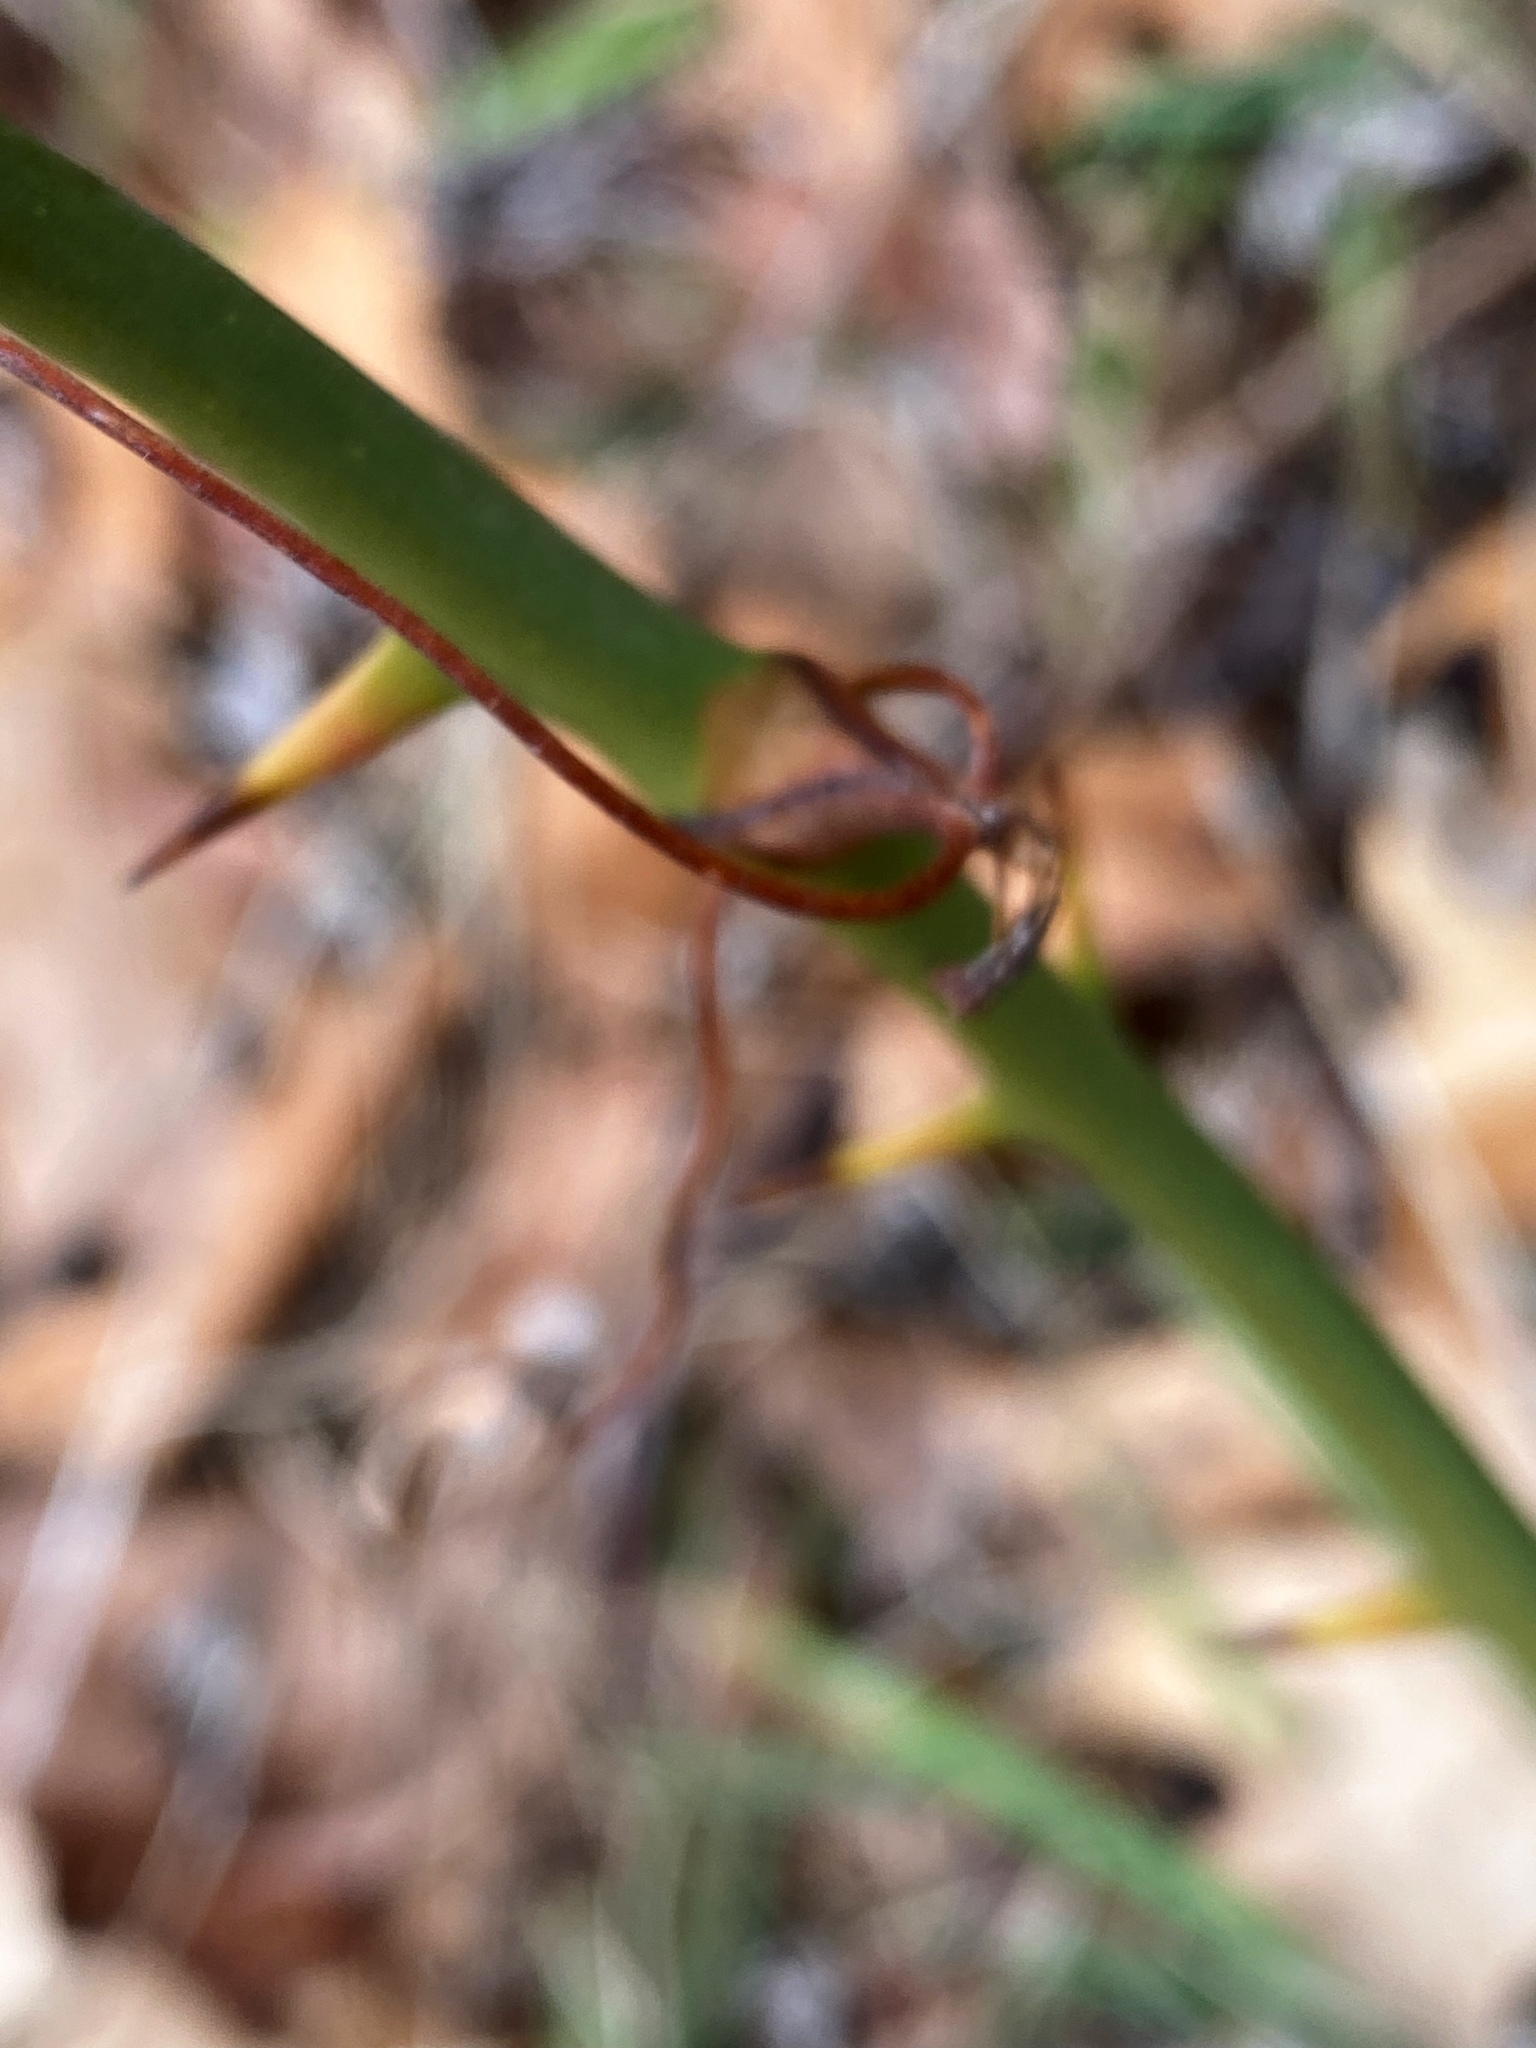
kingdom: Plantae
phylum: Tracheophyta
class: Liliopsida
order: Liliales
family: Smilacaceae
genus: Smilax
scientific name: Smilax rotundifolia
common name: Bullbriar
